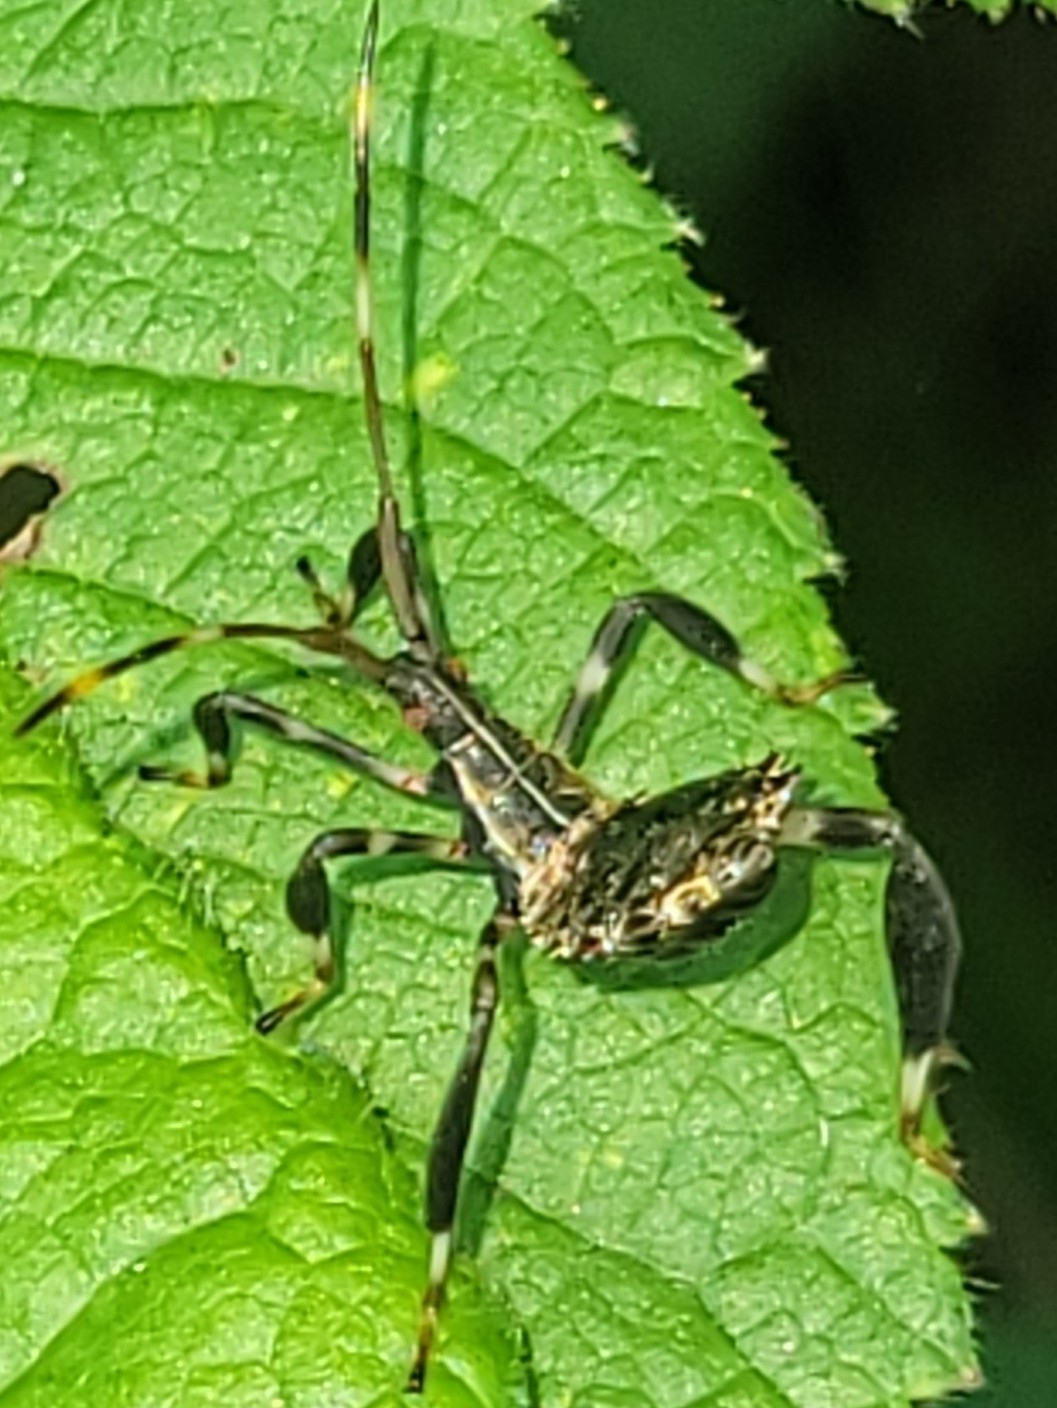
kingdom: Animalia
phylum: Arthropoda
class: Insecta
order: Hemiptera
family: Coreidae
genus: Acanthocephala
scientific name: Acanthocephala terminalis
